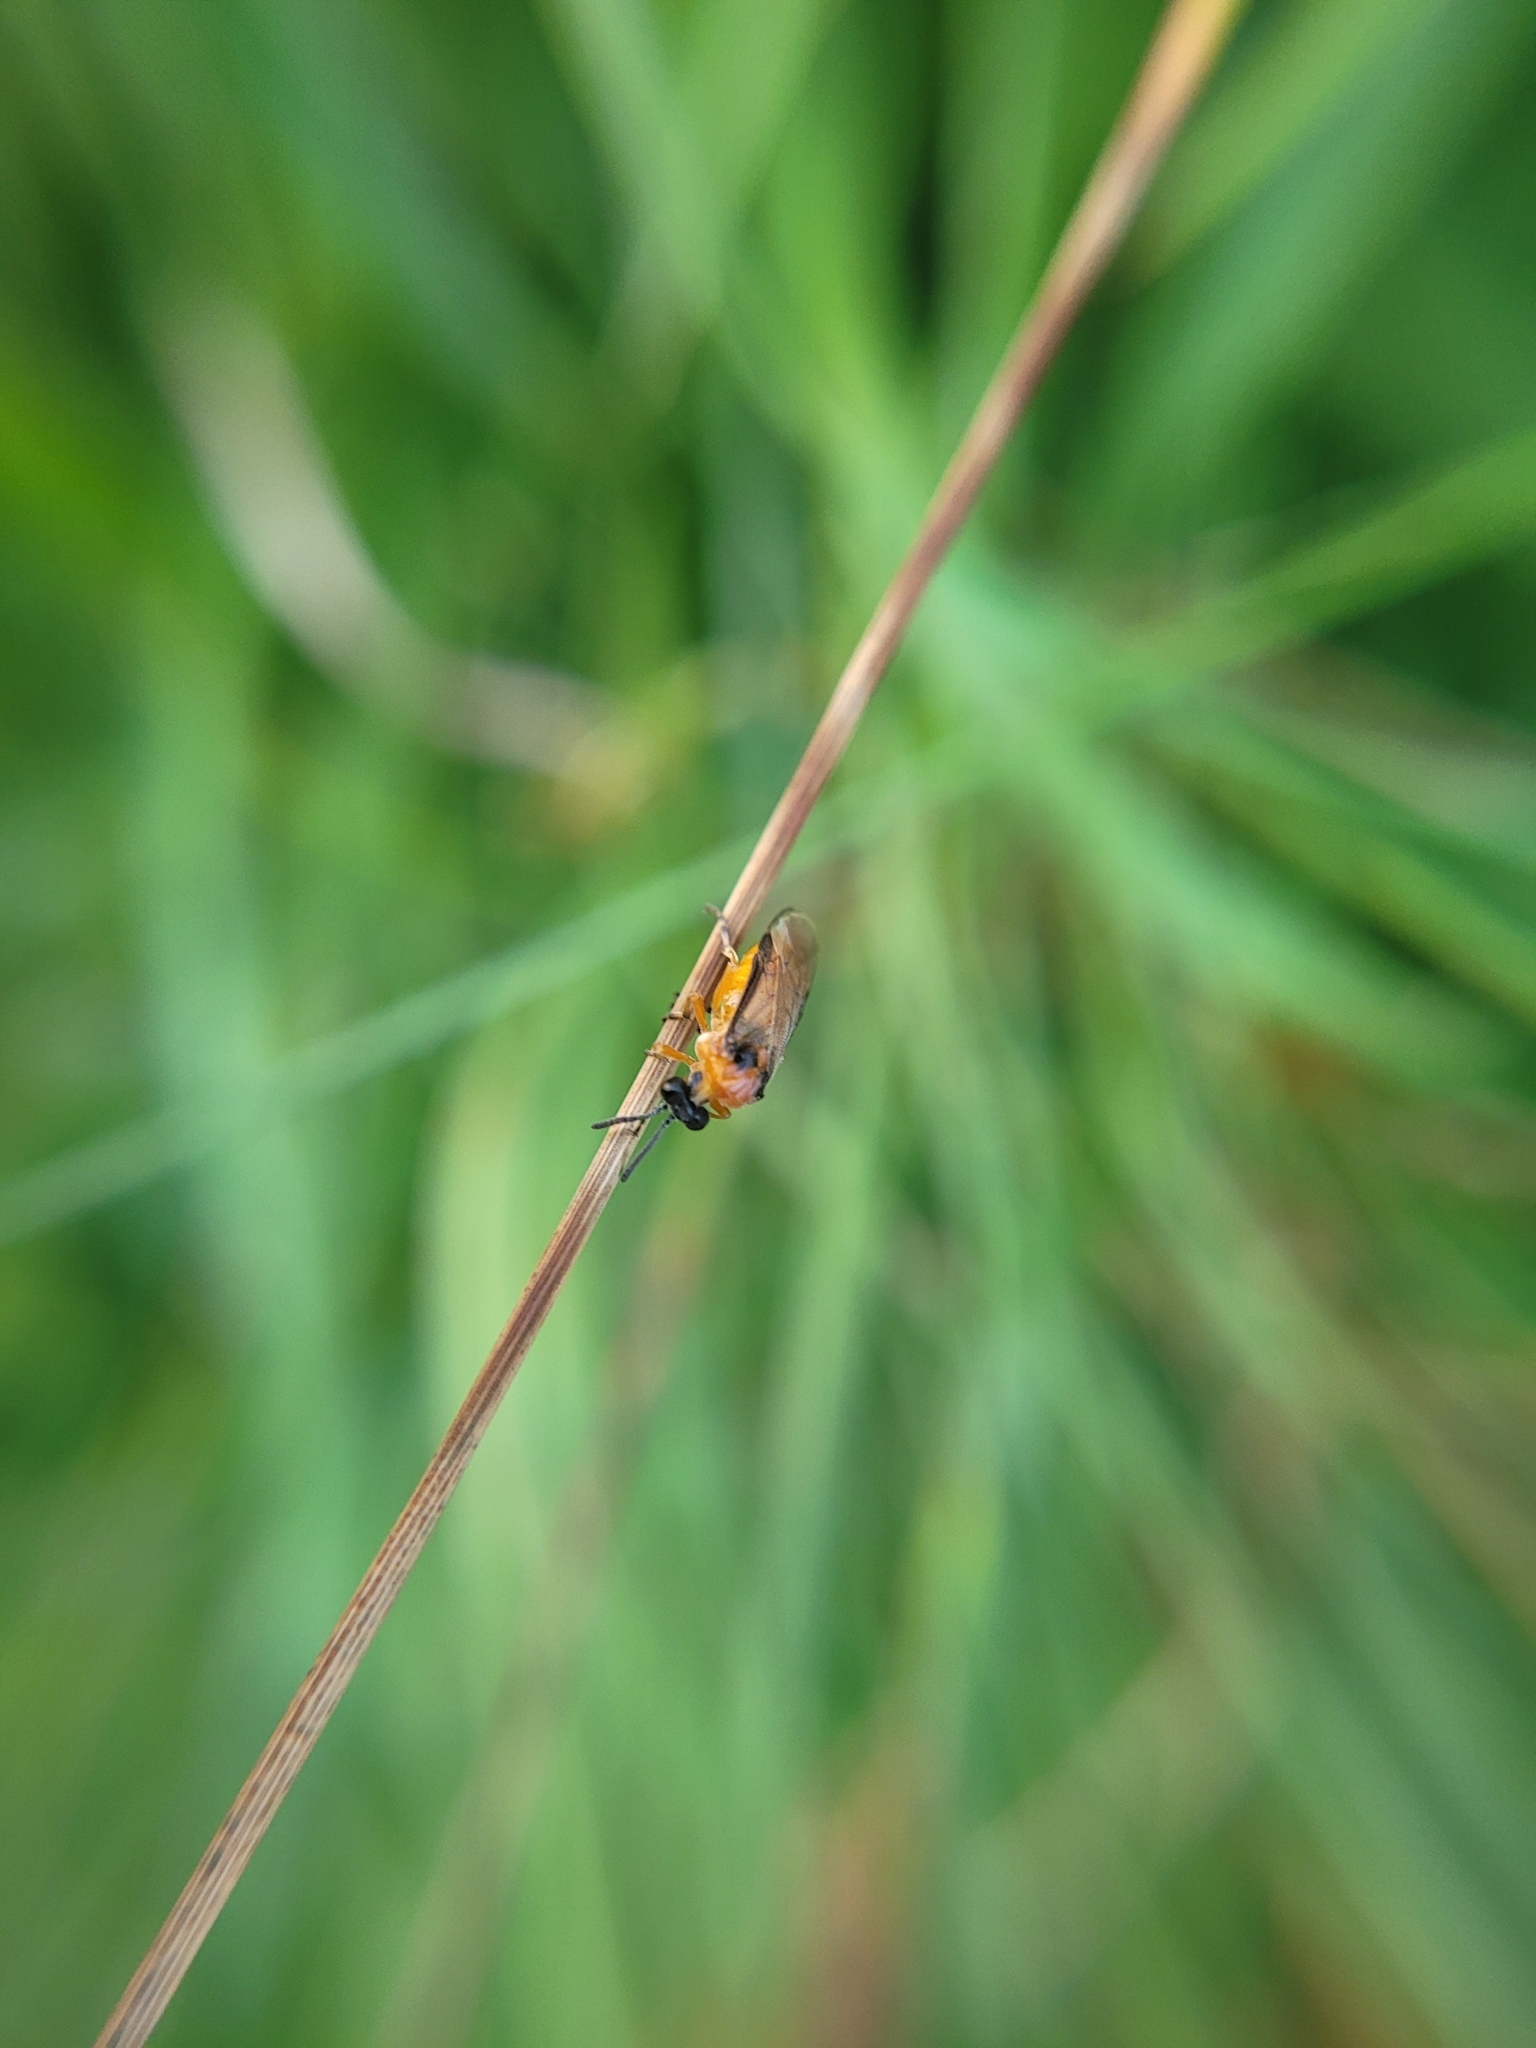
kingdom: Animalia
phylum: Arthropoda
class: Insecta
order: Hymenoptera
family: Tenthredinidae
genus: Athalia
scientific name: Athalia rosae
